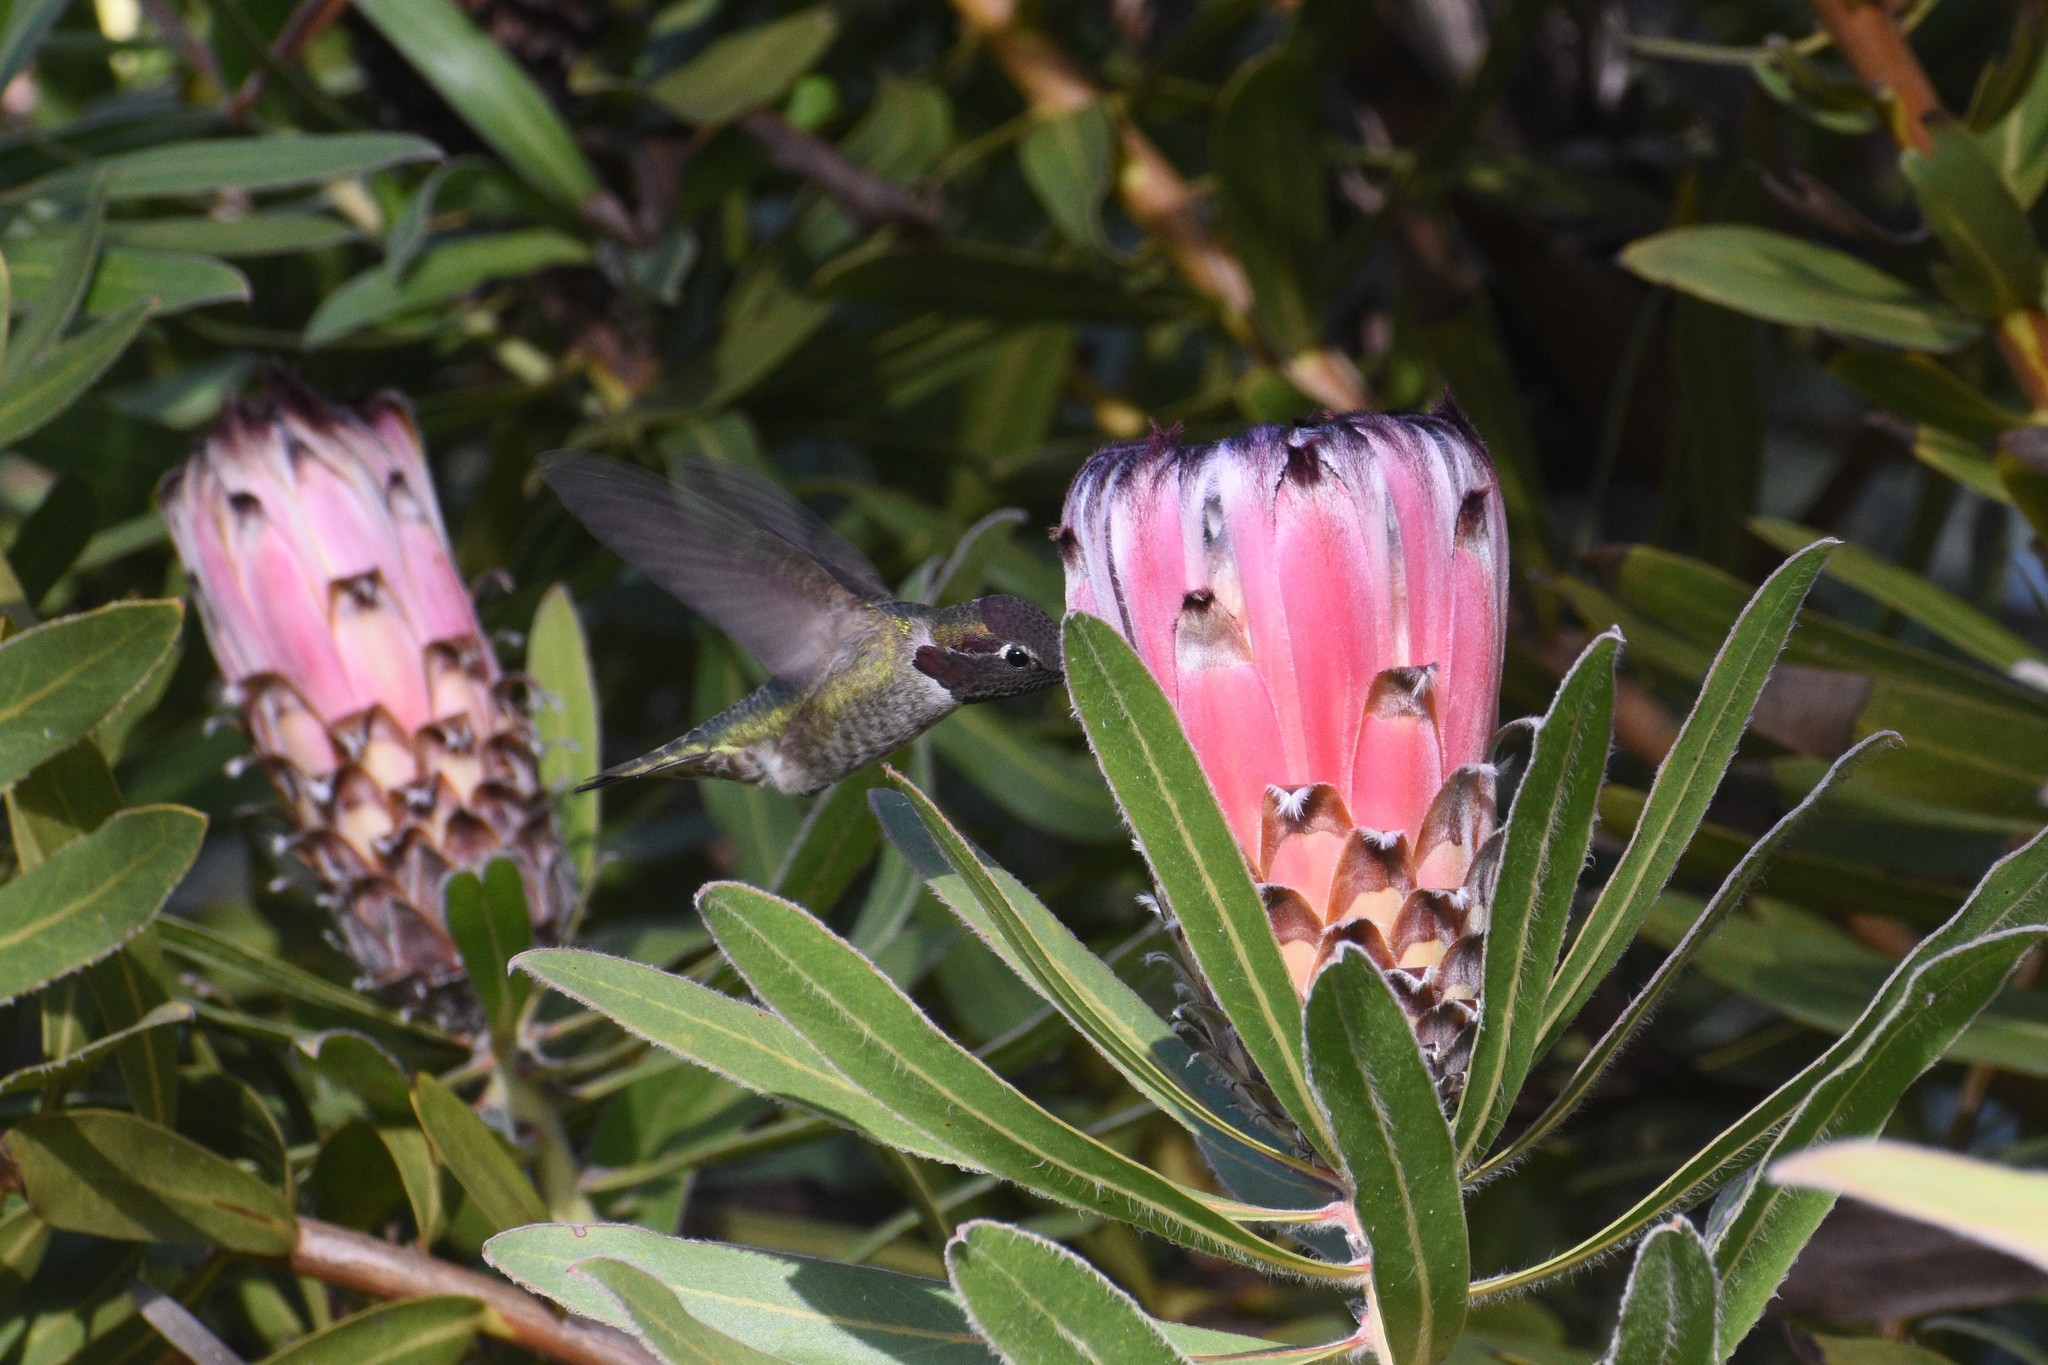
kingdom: Animalia
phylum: Chordata
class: Aves
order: Apodiformes
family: Trochilidae
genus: Calypte
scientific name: Calypte anna
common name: Anna's hummingbird
